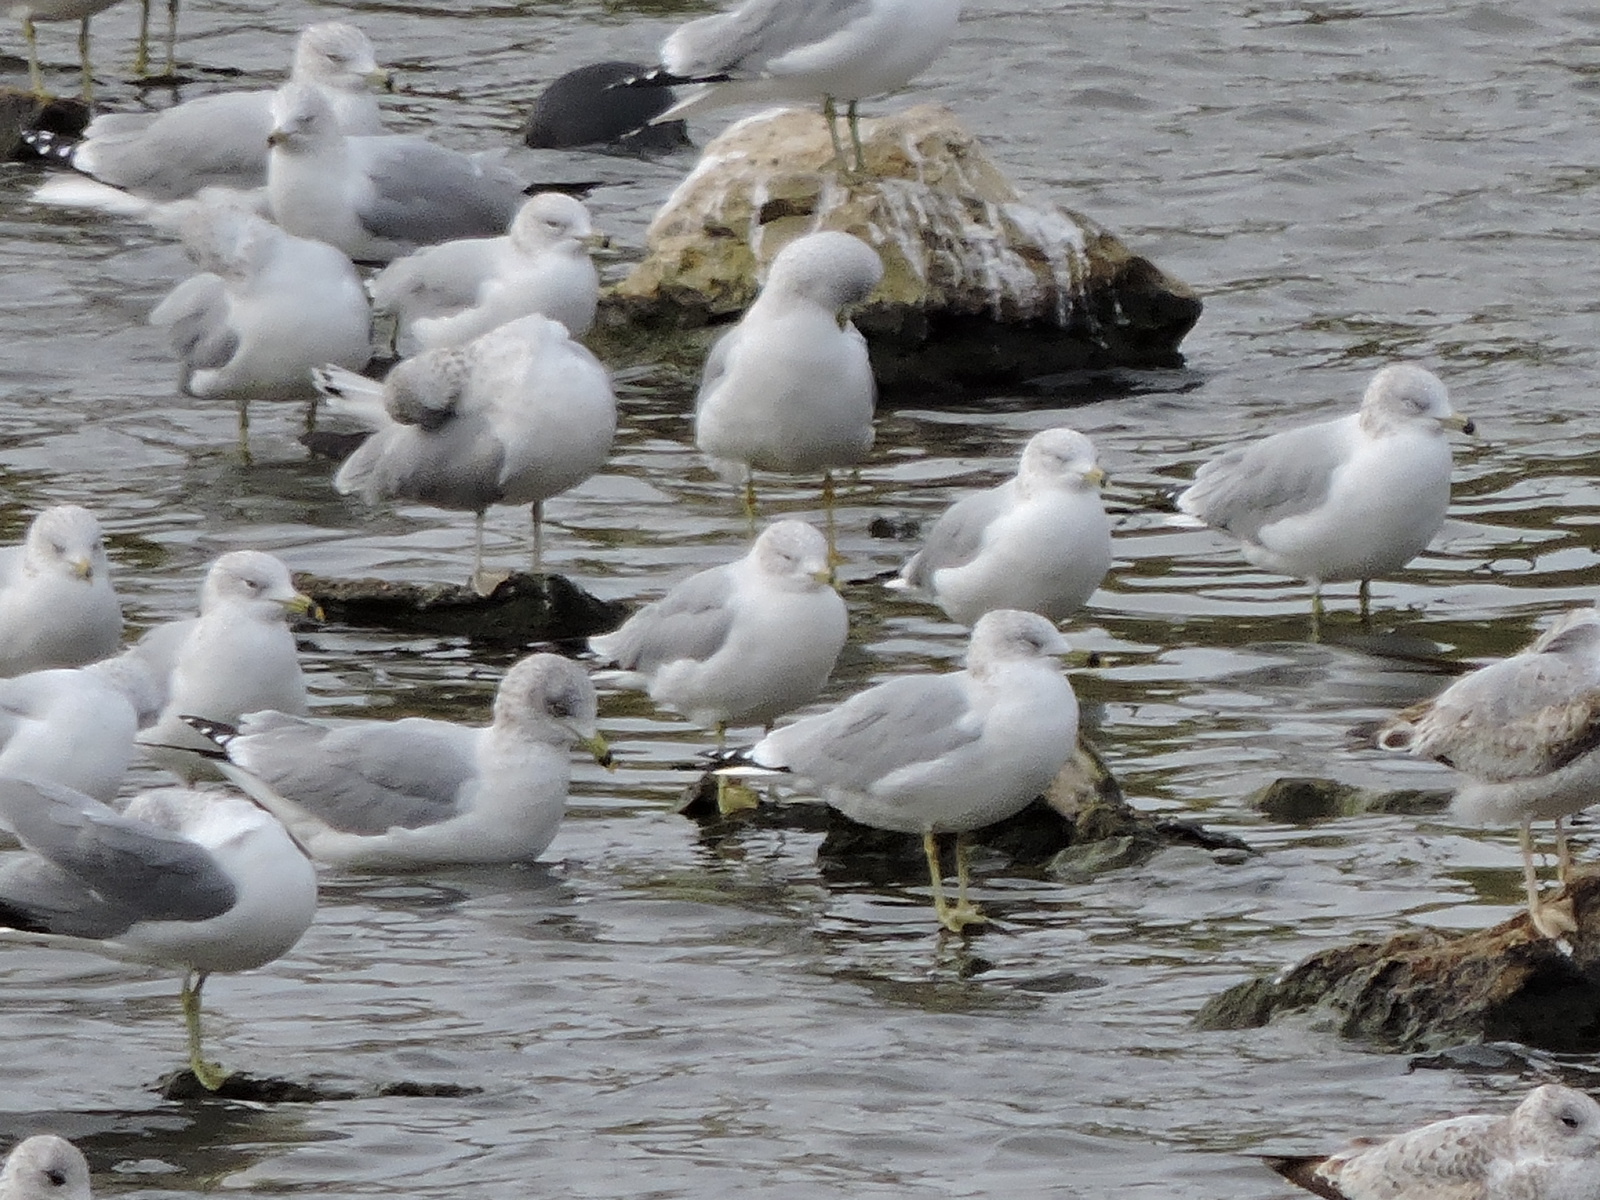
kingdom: Animalia
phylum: Chordata
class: Aves
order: Charadriiformes
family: Laridae
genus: Larus
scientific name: Larus delawarensis
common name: Ring-billed gull
